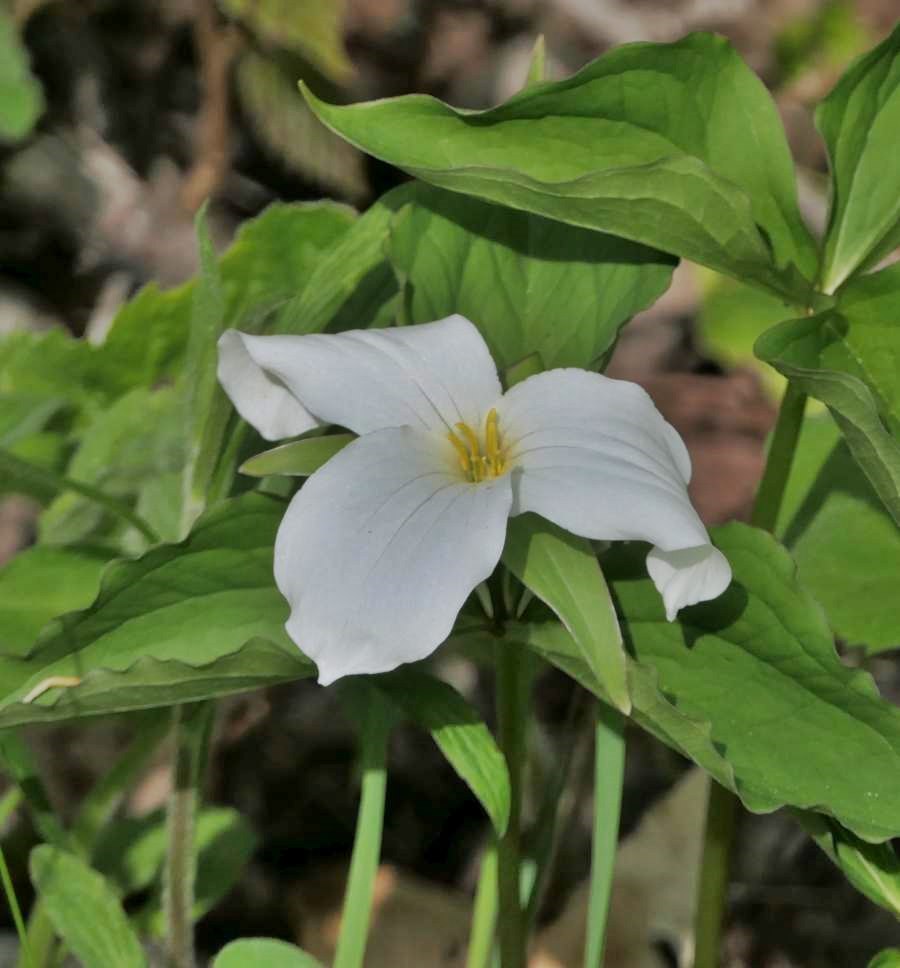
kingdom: Plantae
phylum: Tracheophyta
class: Liliopsida
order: Liliales
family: Melanthiaceae
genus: Trillium
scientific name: Trillium grandiflorum
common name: Great white trillium
